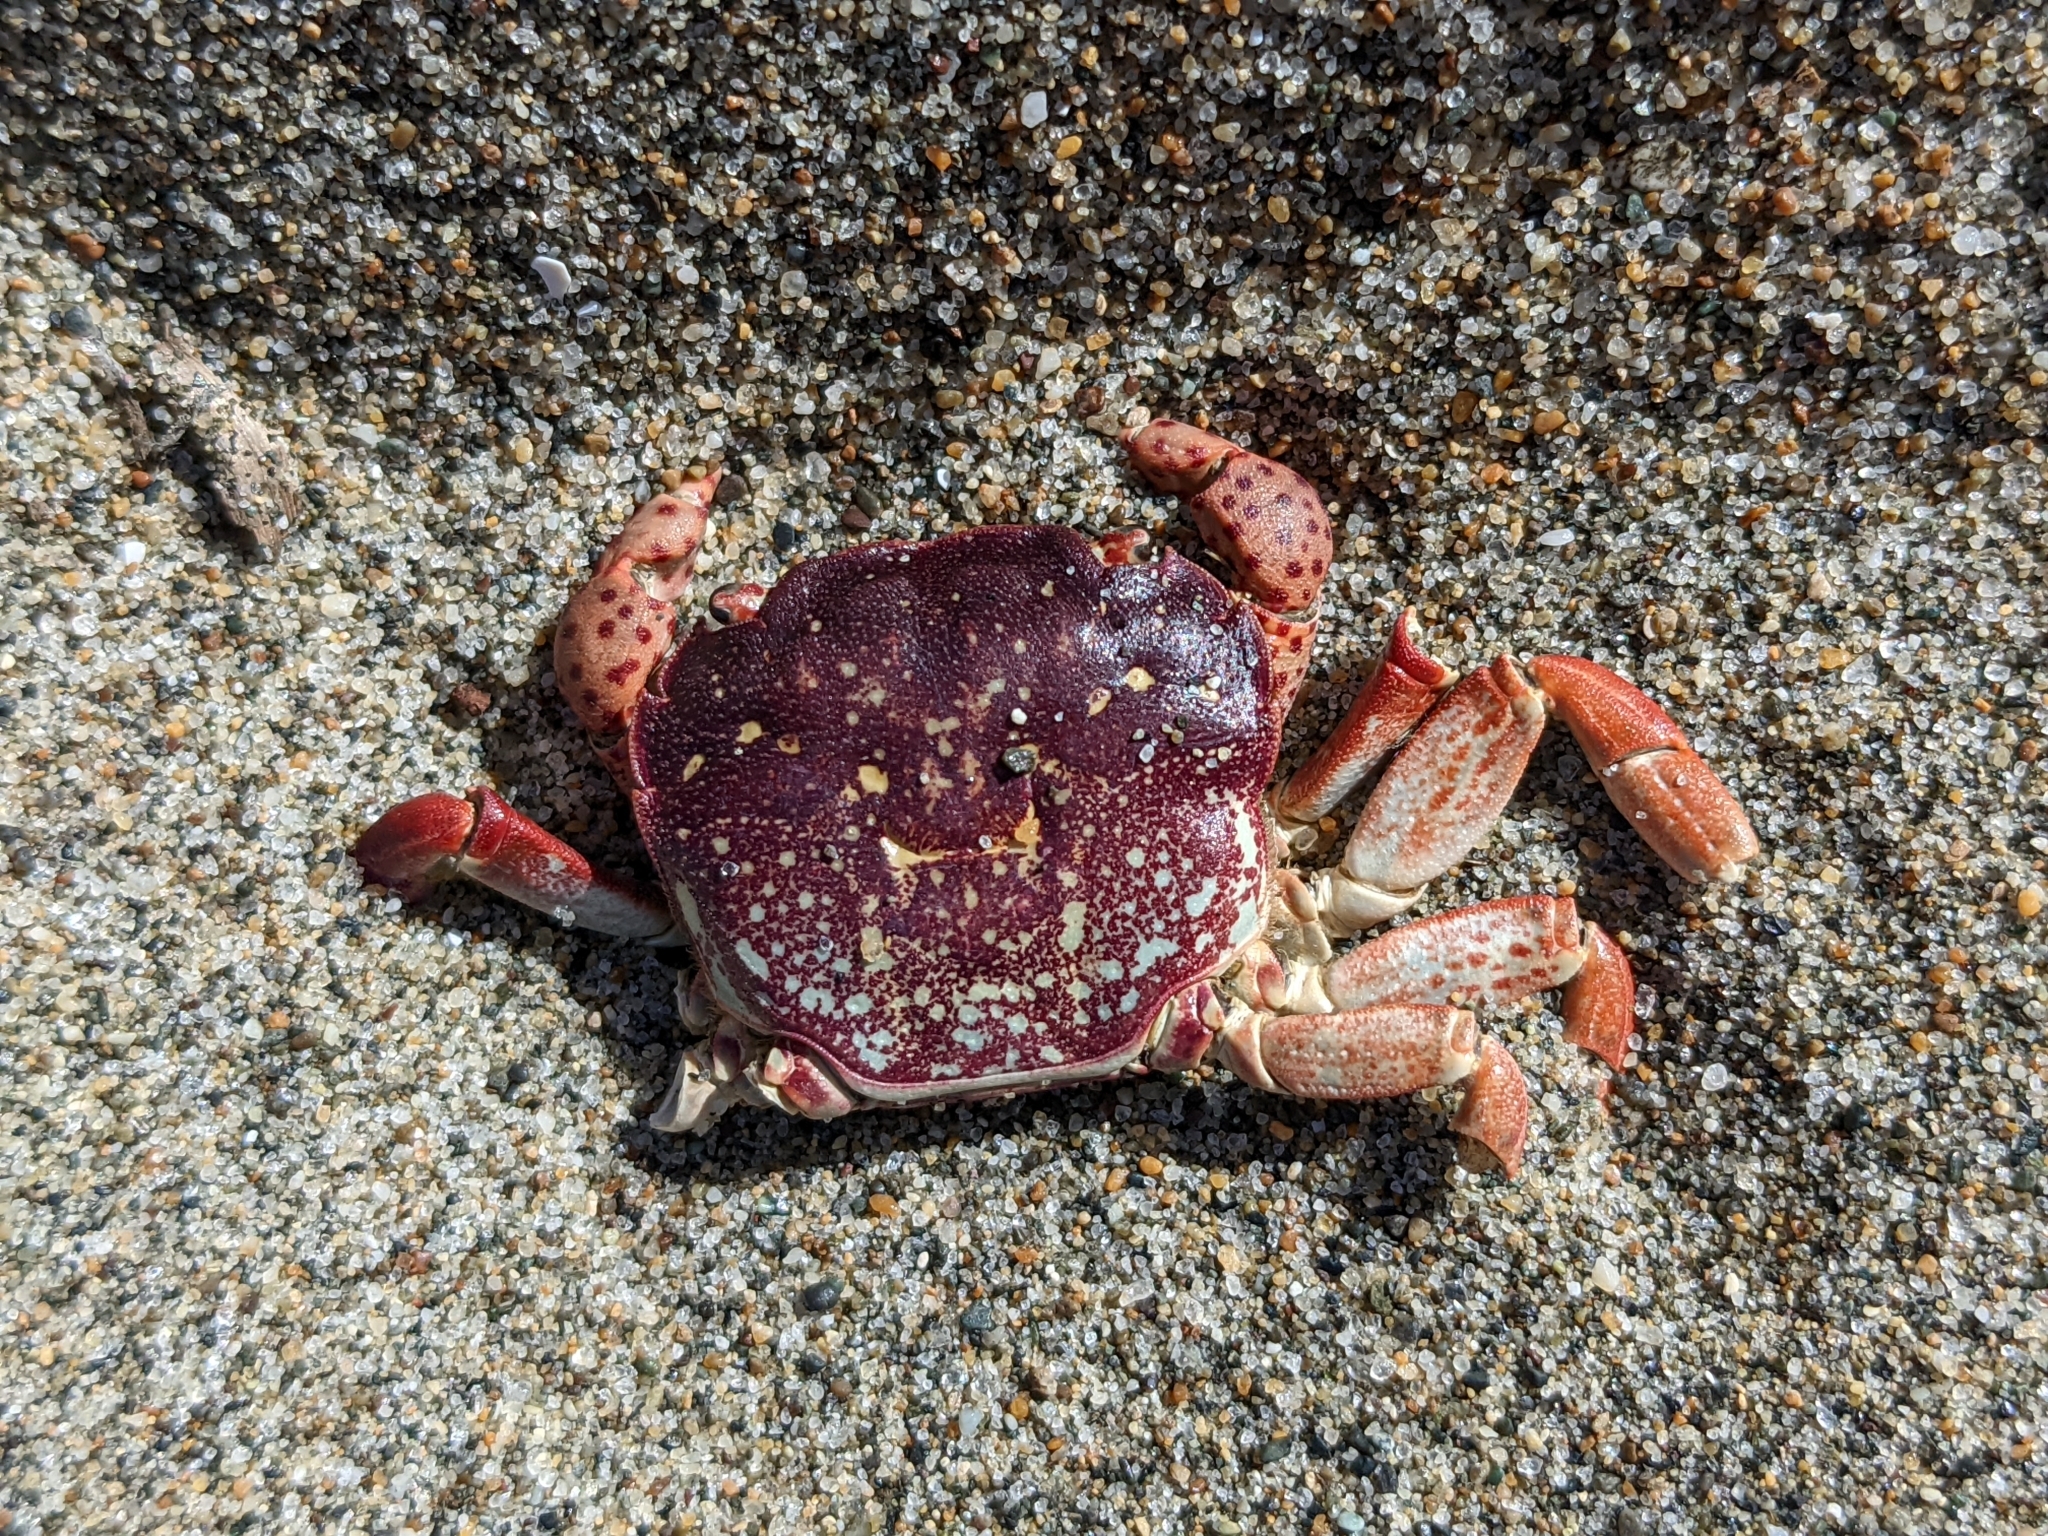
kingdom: Animalia
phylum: Arthropoda
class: Malacostraca
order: Decapoda
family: Varunidae
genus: Hemigrapsus
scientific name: Hemigrapsus nudus
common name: Purple shore crab
